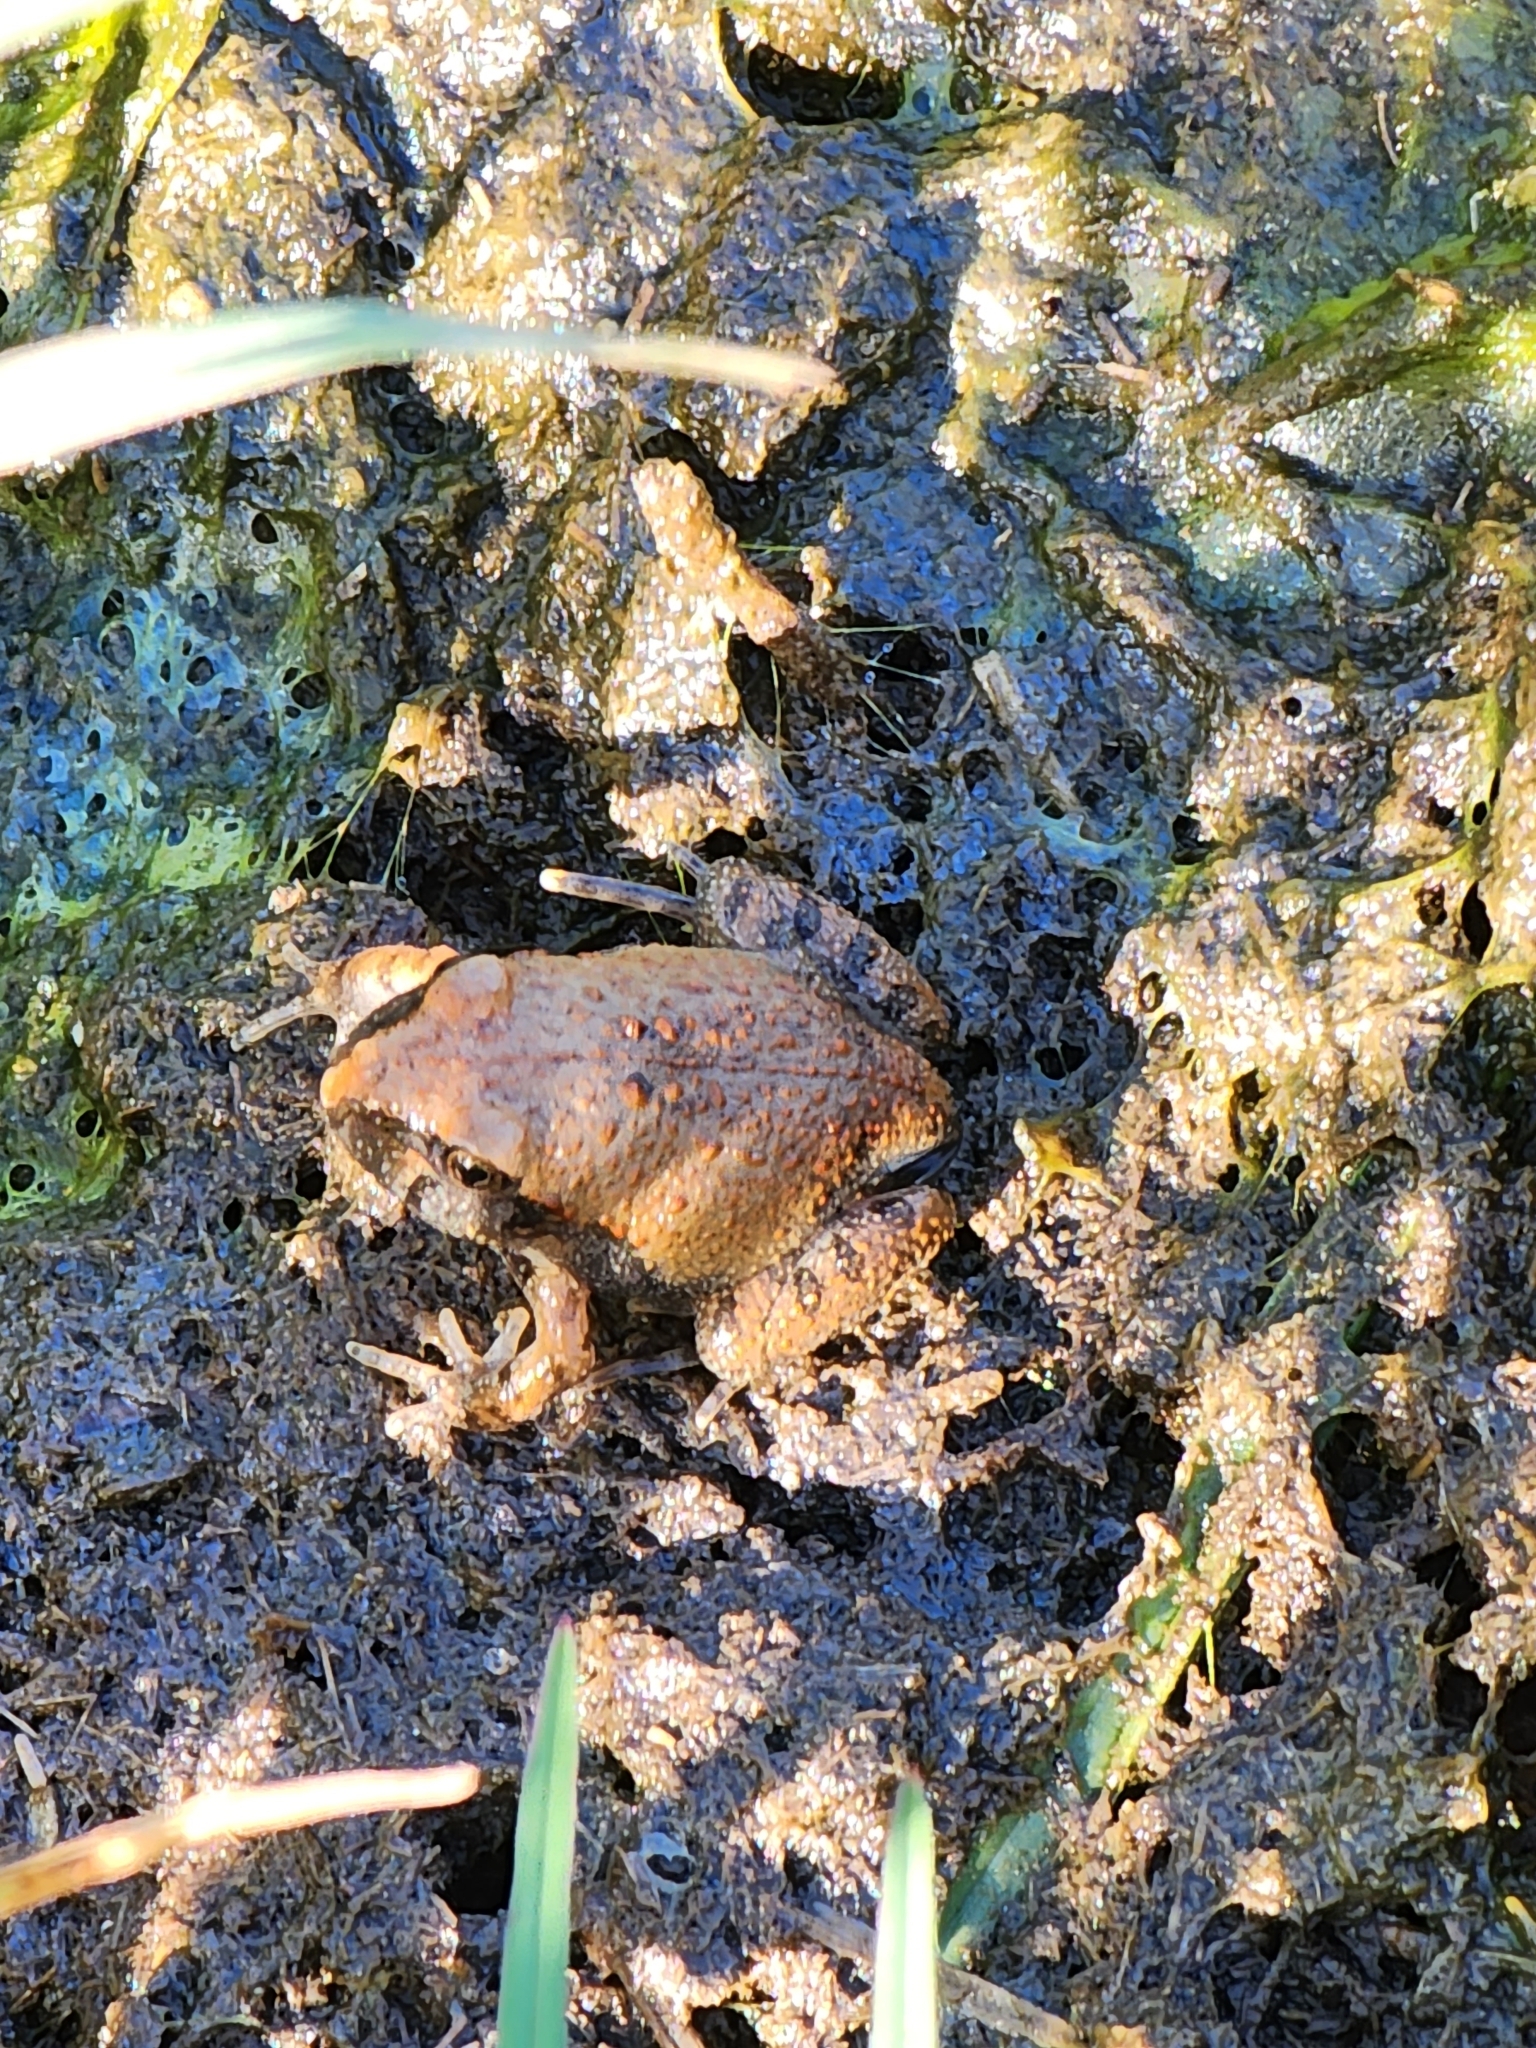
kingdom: Animalia
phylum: Chordata
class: Amphibia
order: Anura
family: Limnodynastidae
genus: Platyplectrum
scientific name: Platyplectrum ornatum
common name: Ornate burrowing frog
